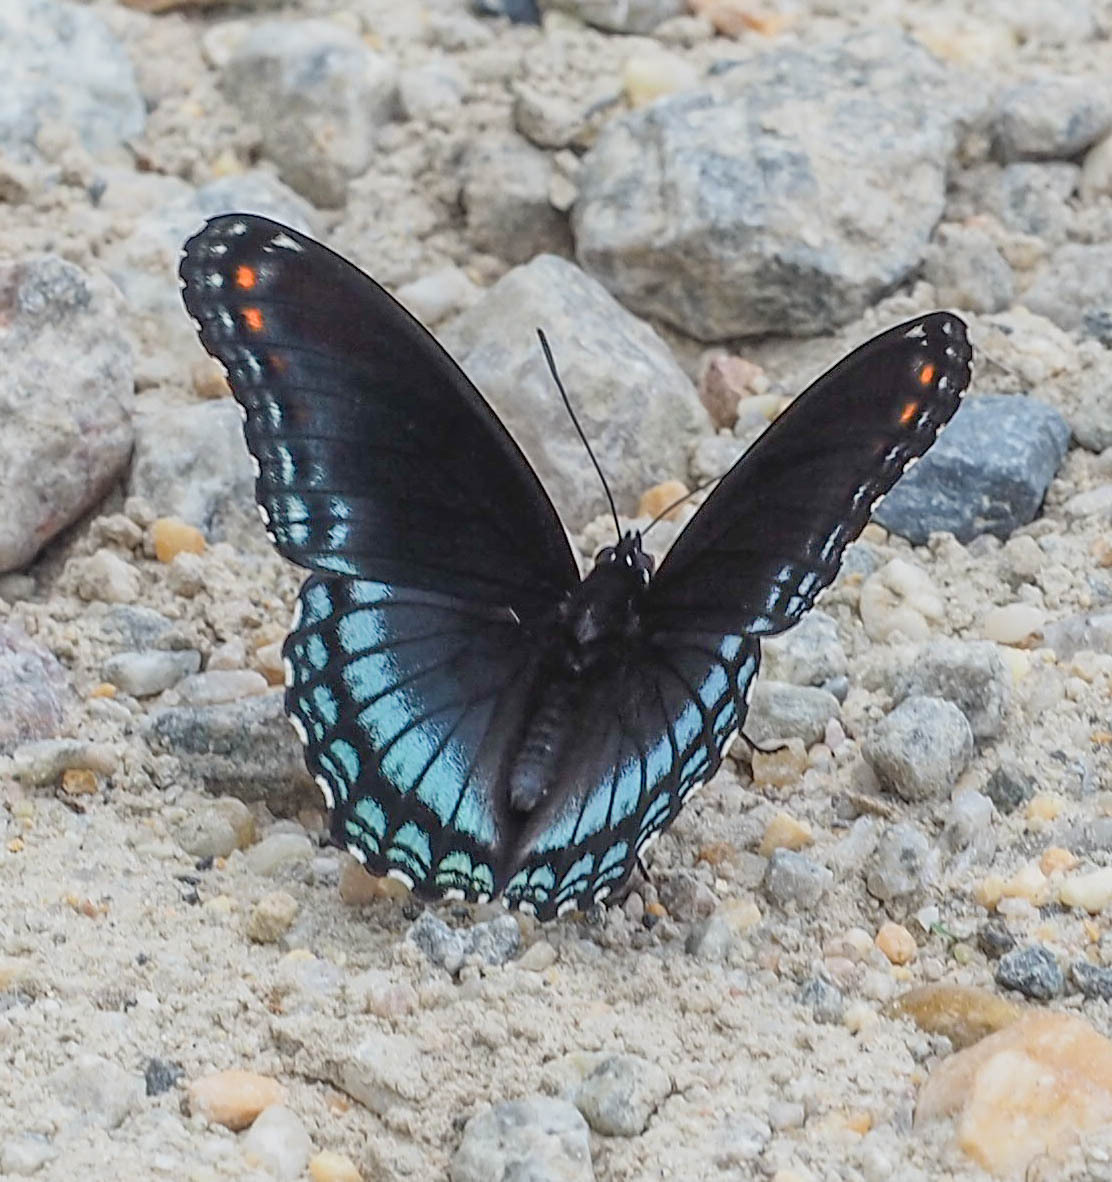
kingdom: Animalia
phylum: Arthropoda
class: Insecta
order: Lepidoptera
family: Nymphalidae
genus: Limenitis
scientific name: Limenitis astyanax
